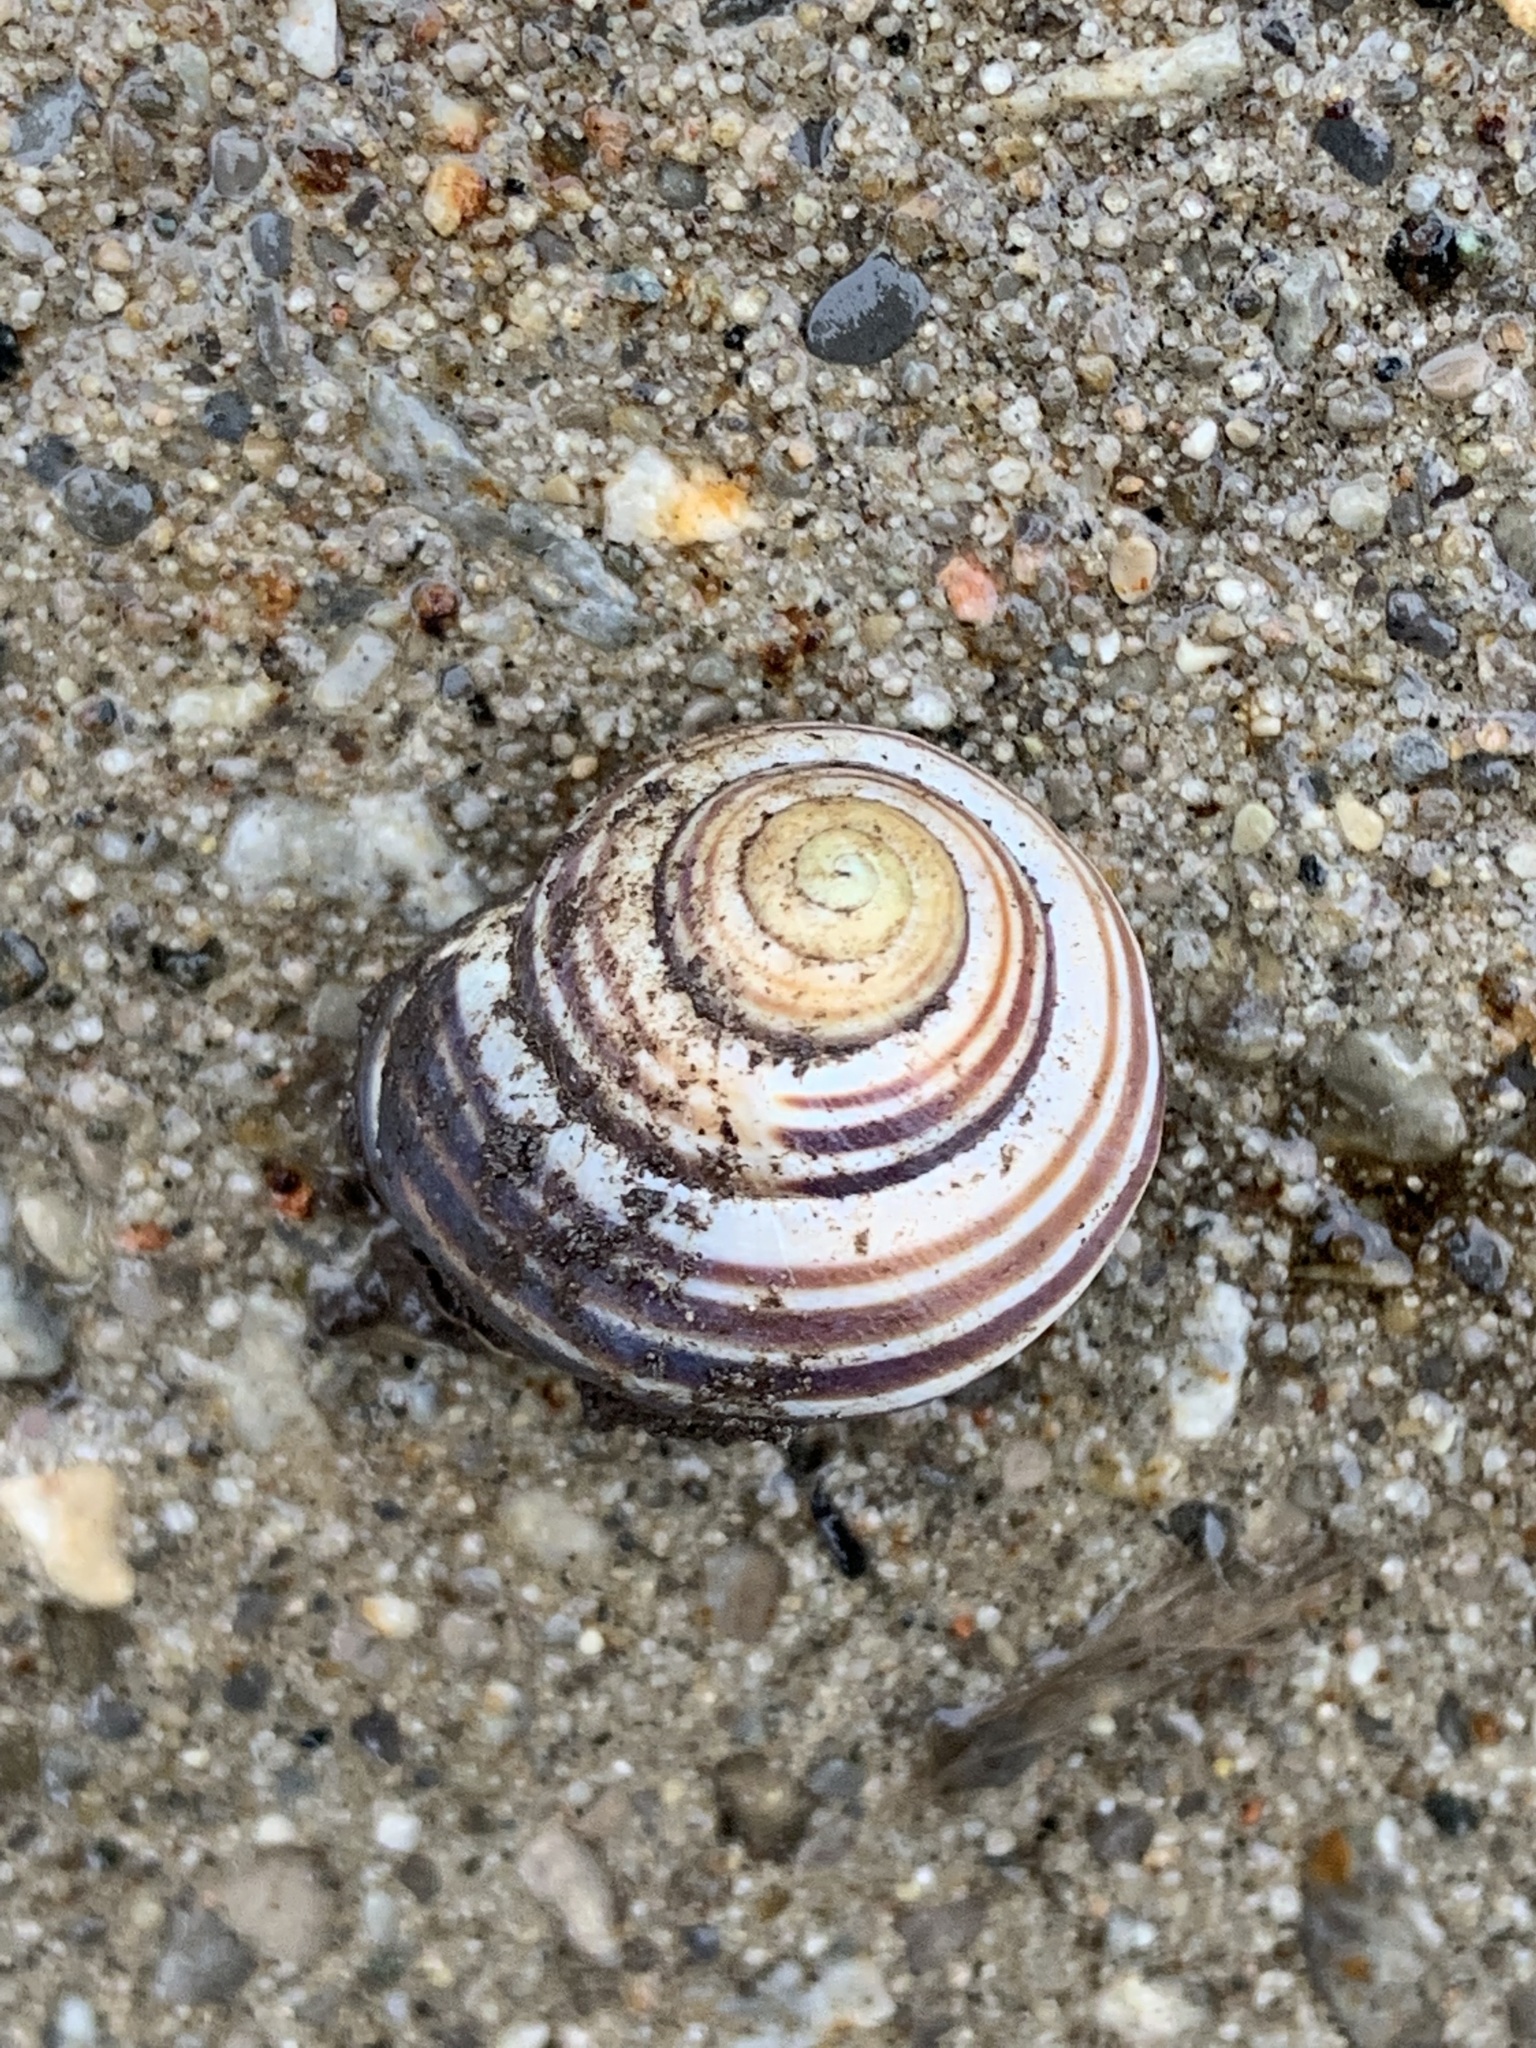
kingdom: Animalia
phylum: Mollusca
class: Gastropoda
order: Stylommatophora
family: Helicidae
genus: Cepaea
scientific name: Cepaea nemoralis
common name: Grovesnail
